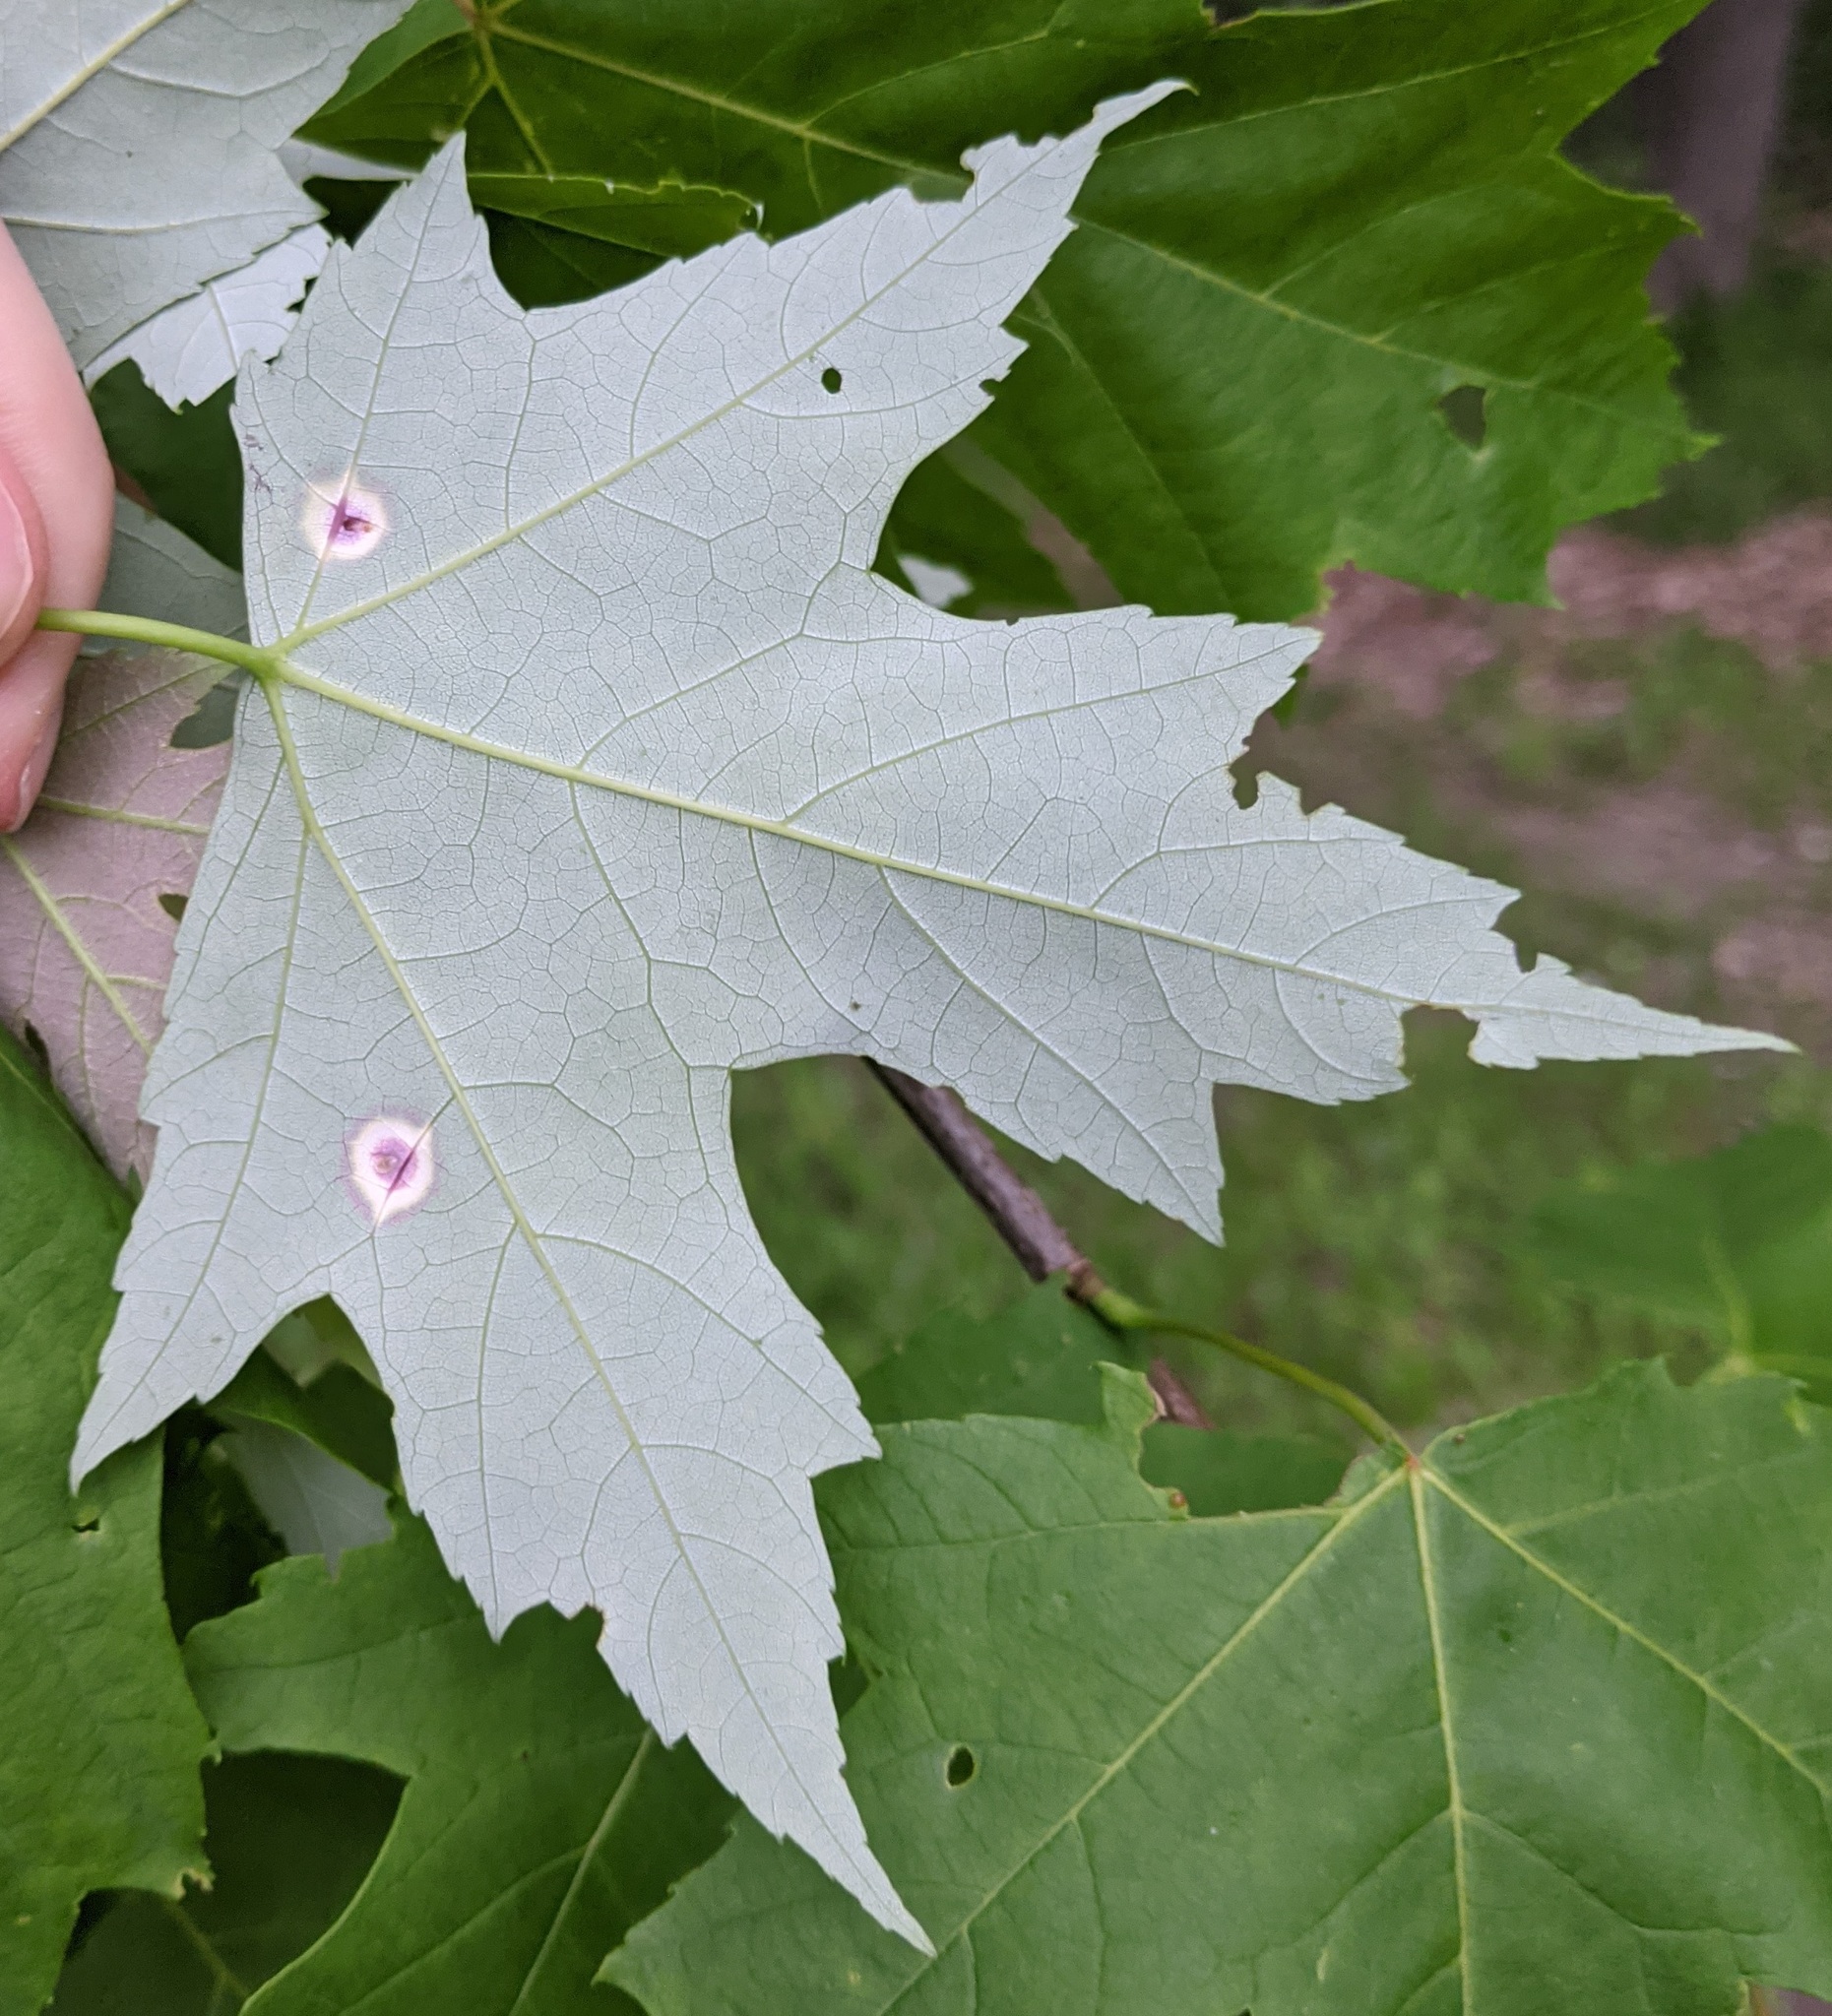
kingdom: Animalia
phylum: Arthropoda
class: Insecta
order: Diptera
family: Cecidomyiidae
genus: Acericecis
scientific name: Acericecis ocellaris
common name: Ocellate gall midge
